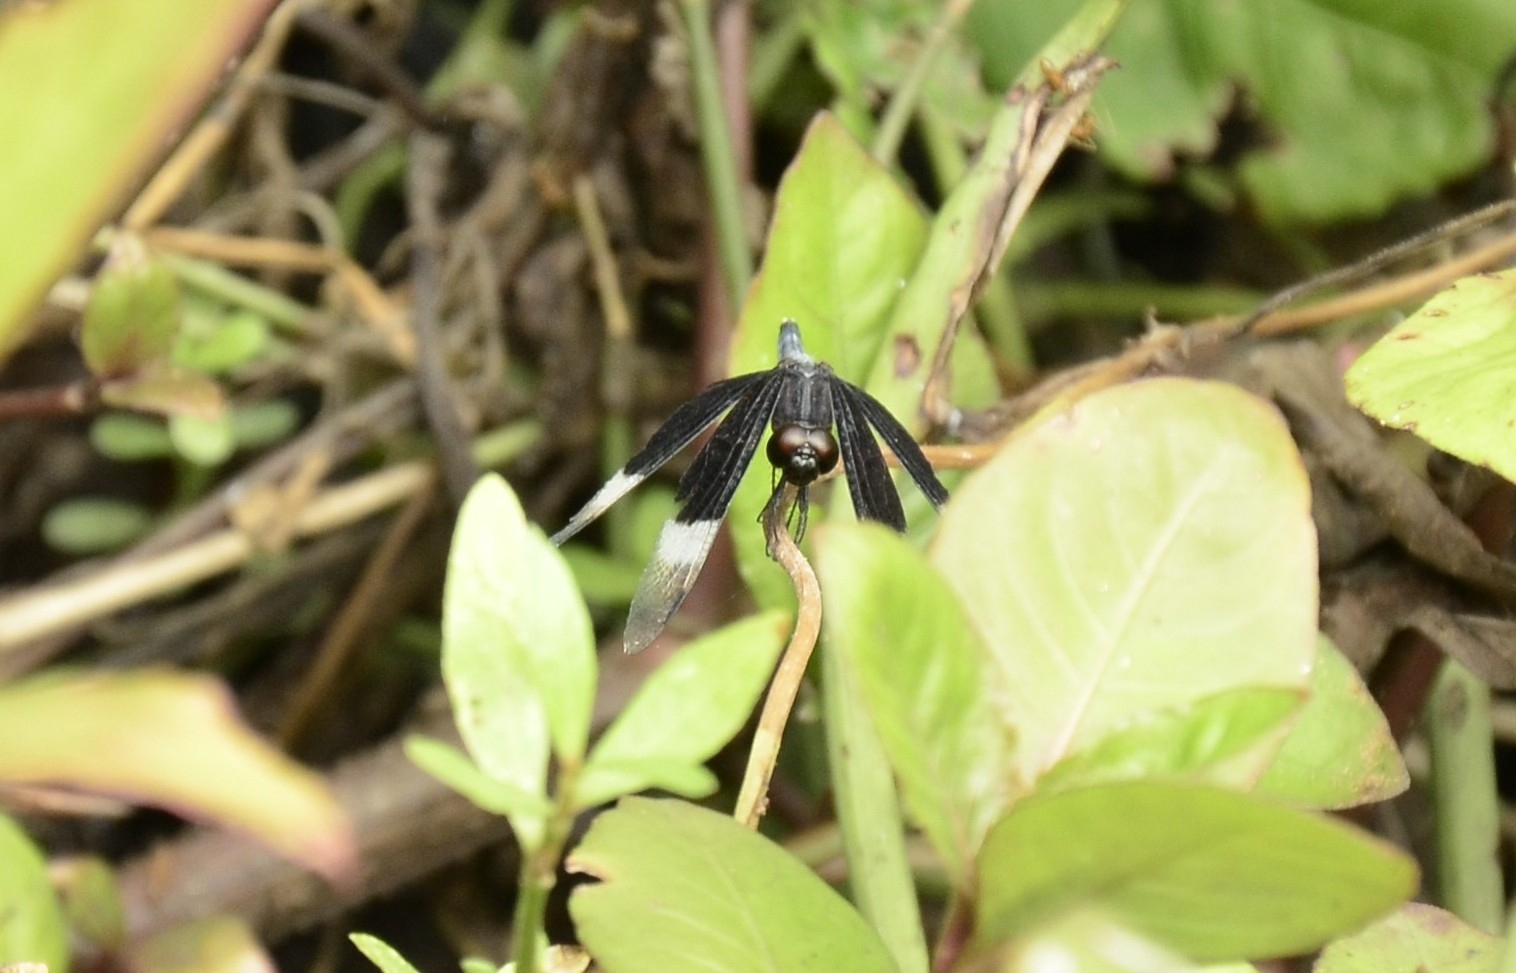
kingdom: Animalia
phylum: Arthropoda
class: Insecta
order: Odonata
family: Libellulidae
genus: Neurothemis
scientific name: Neurothemis tullia
